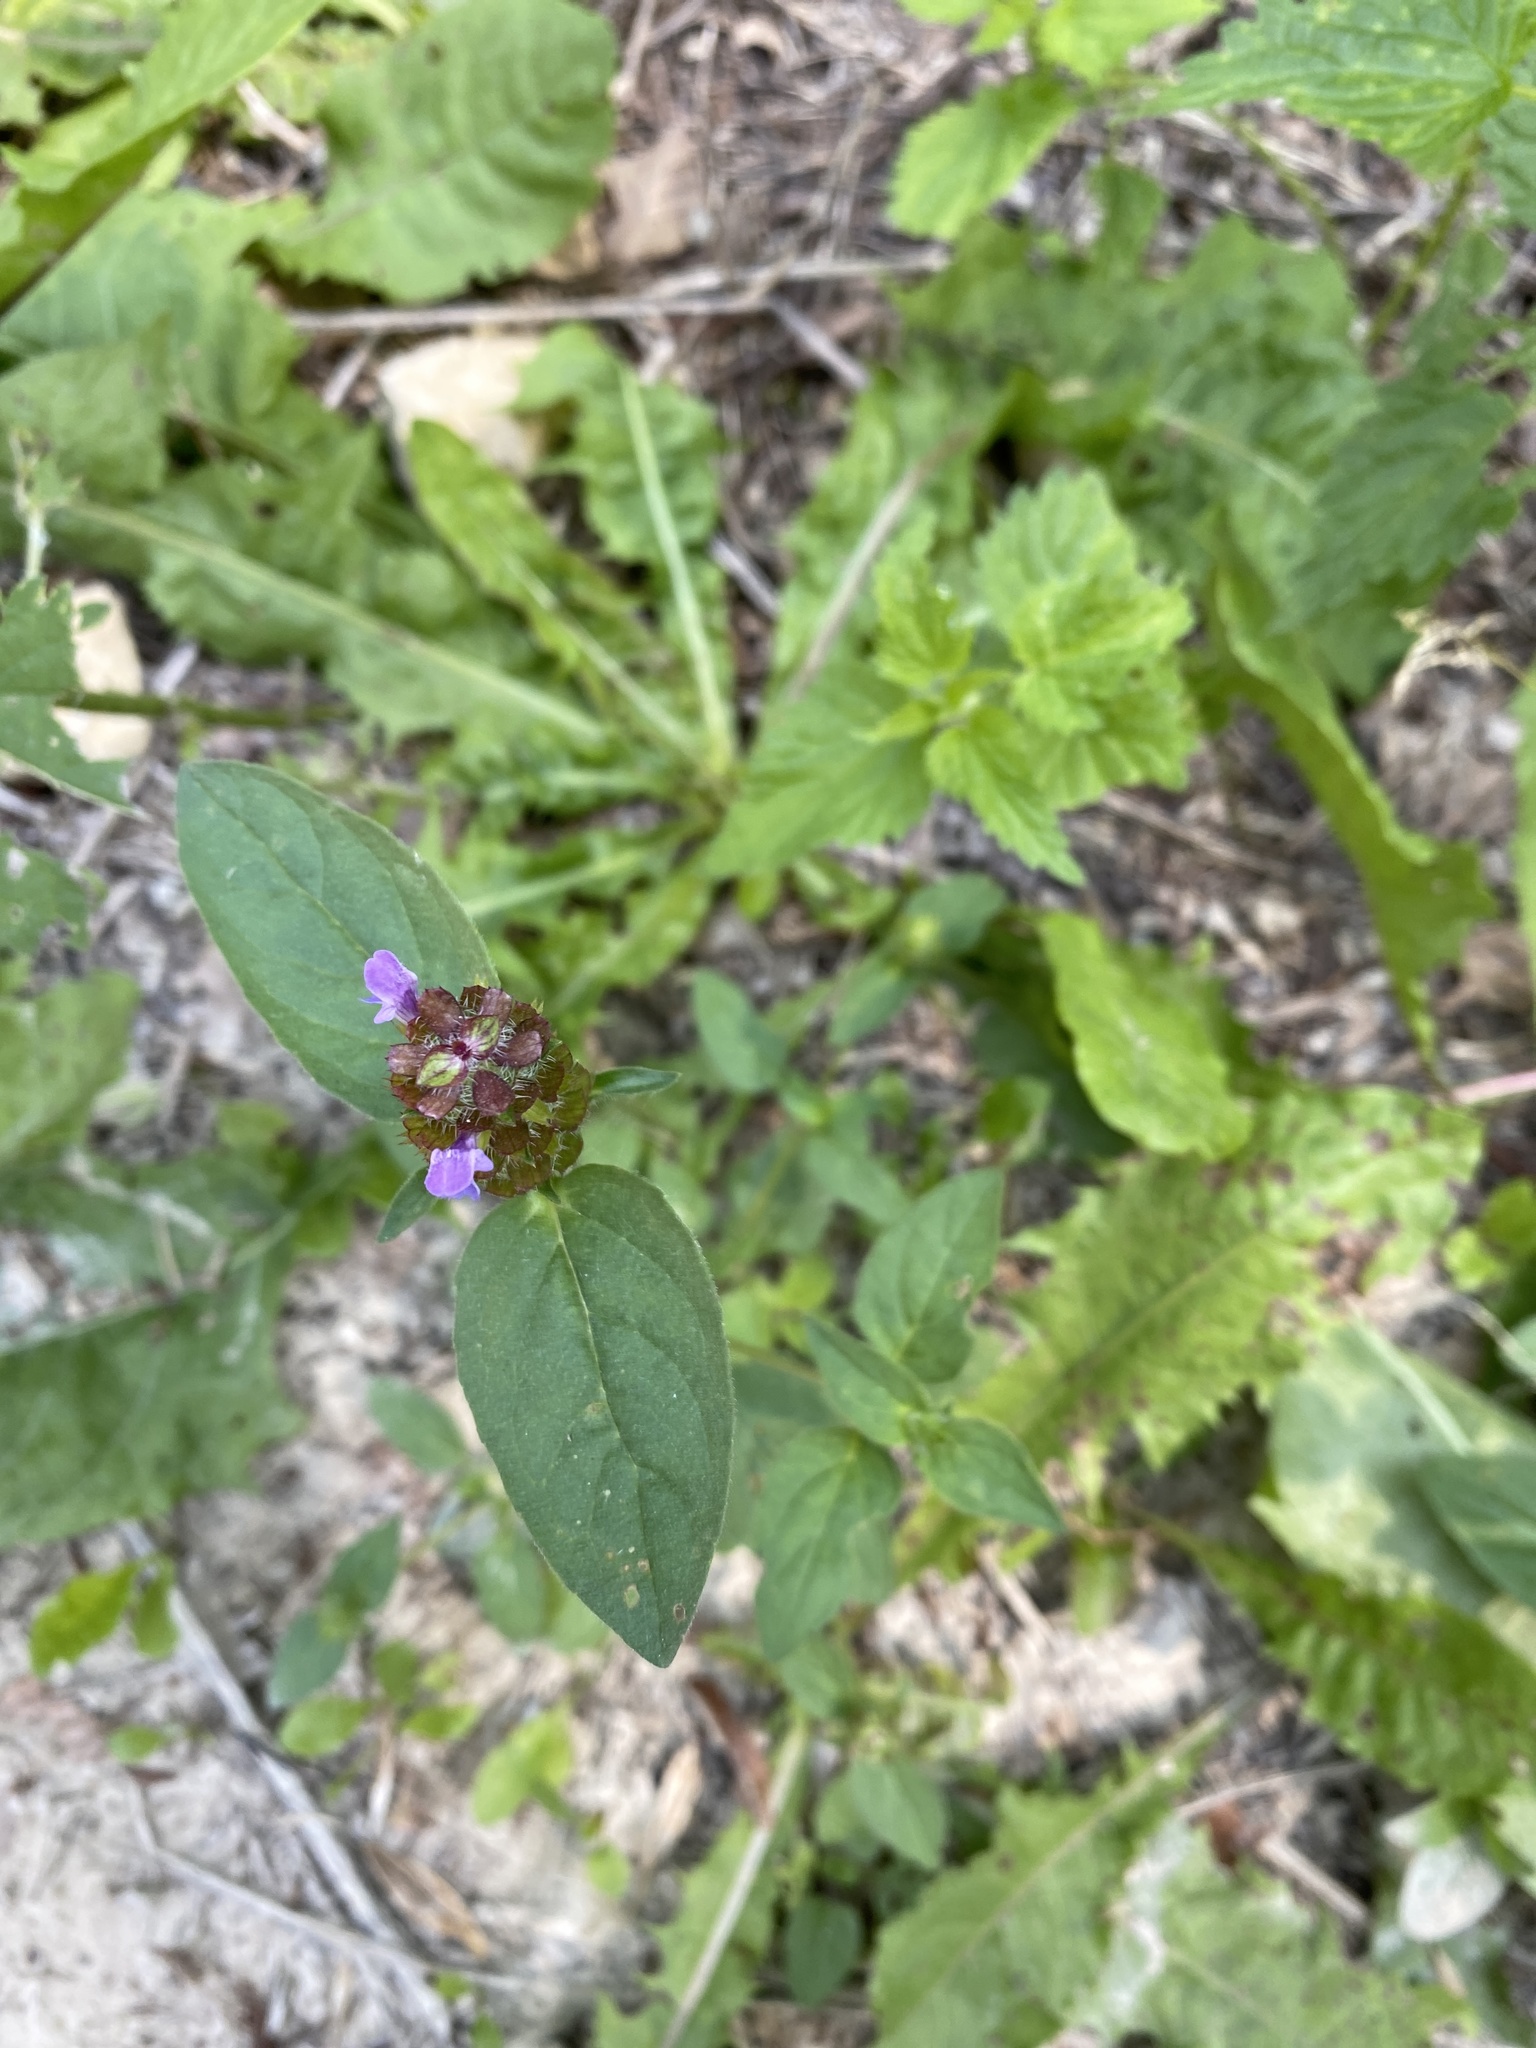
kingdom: Plantae
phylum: Tracheophyta
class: Magnoliopsida
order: Lamiales
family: Lamiaceae
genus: Prunella
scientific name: Prunella vulgaris
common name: Heal-all
